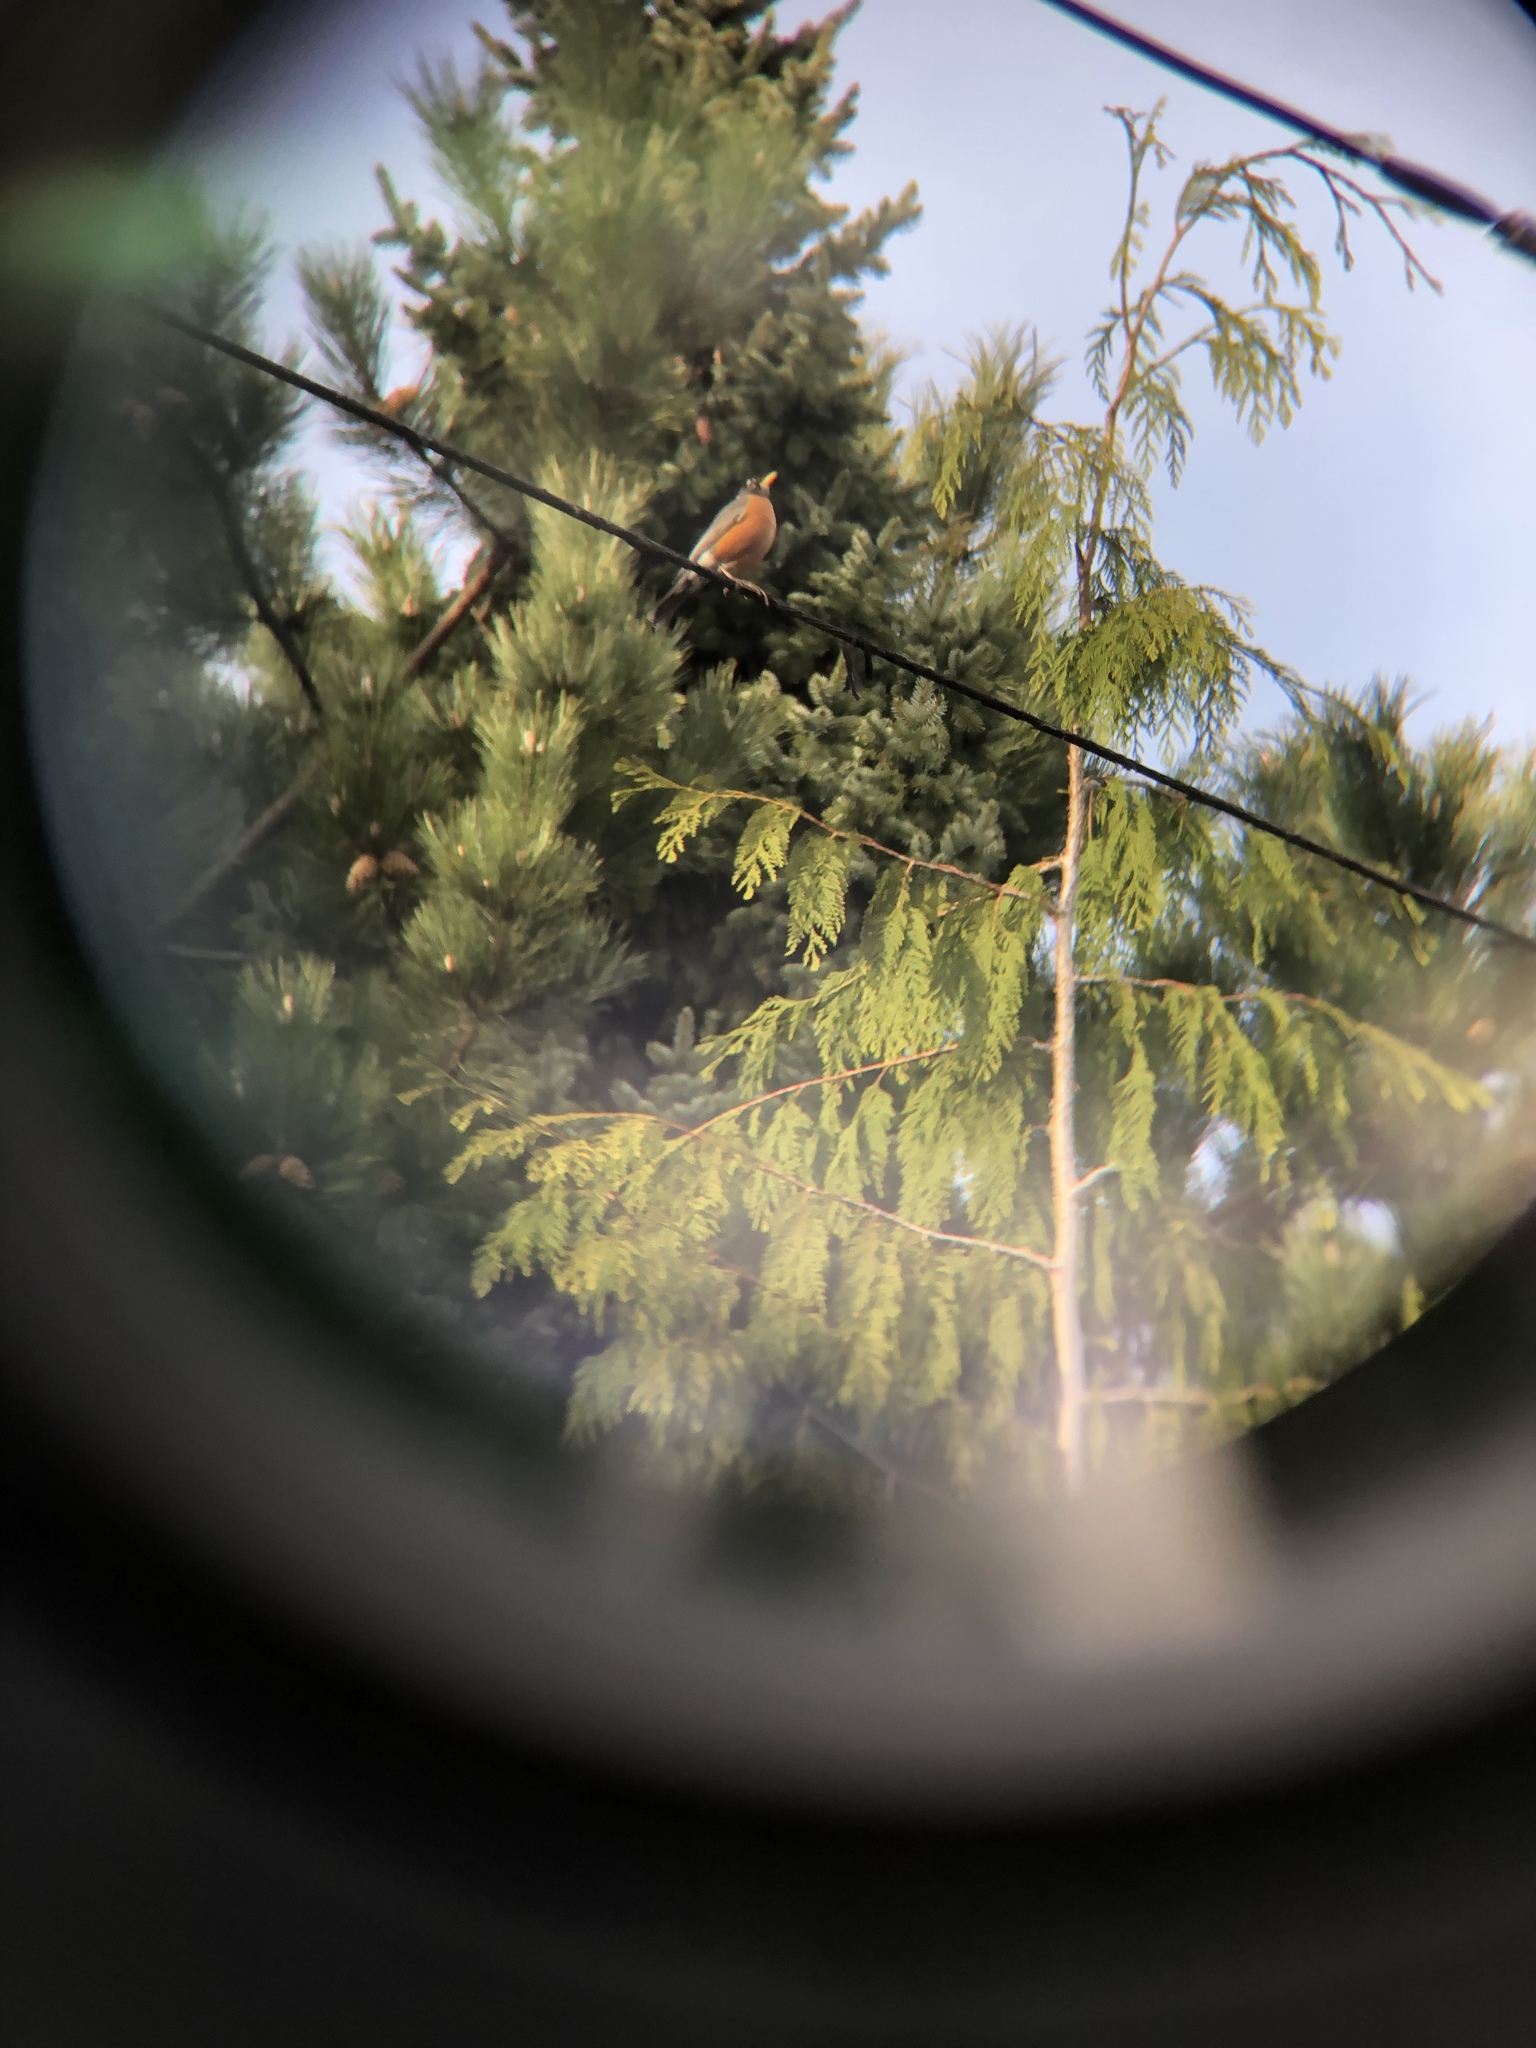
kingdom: Animalia
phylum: Chordata
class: Aves
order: Passeriformes
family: Turdidae
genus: Turdus
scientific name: Turdus migratorius
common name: American robin
